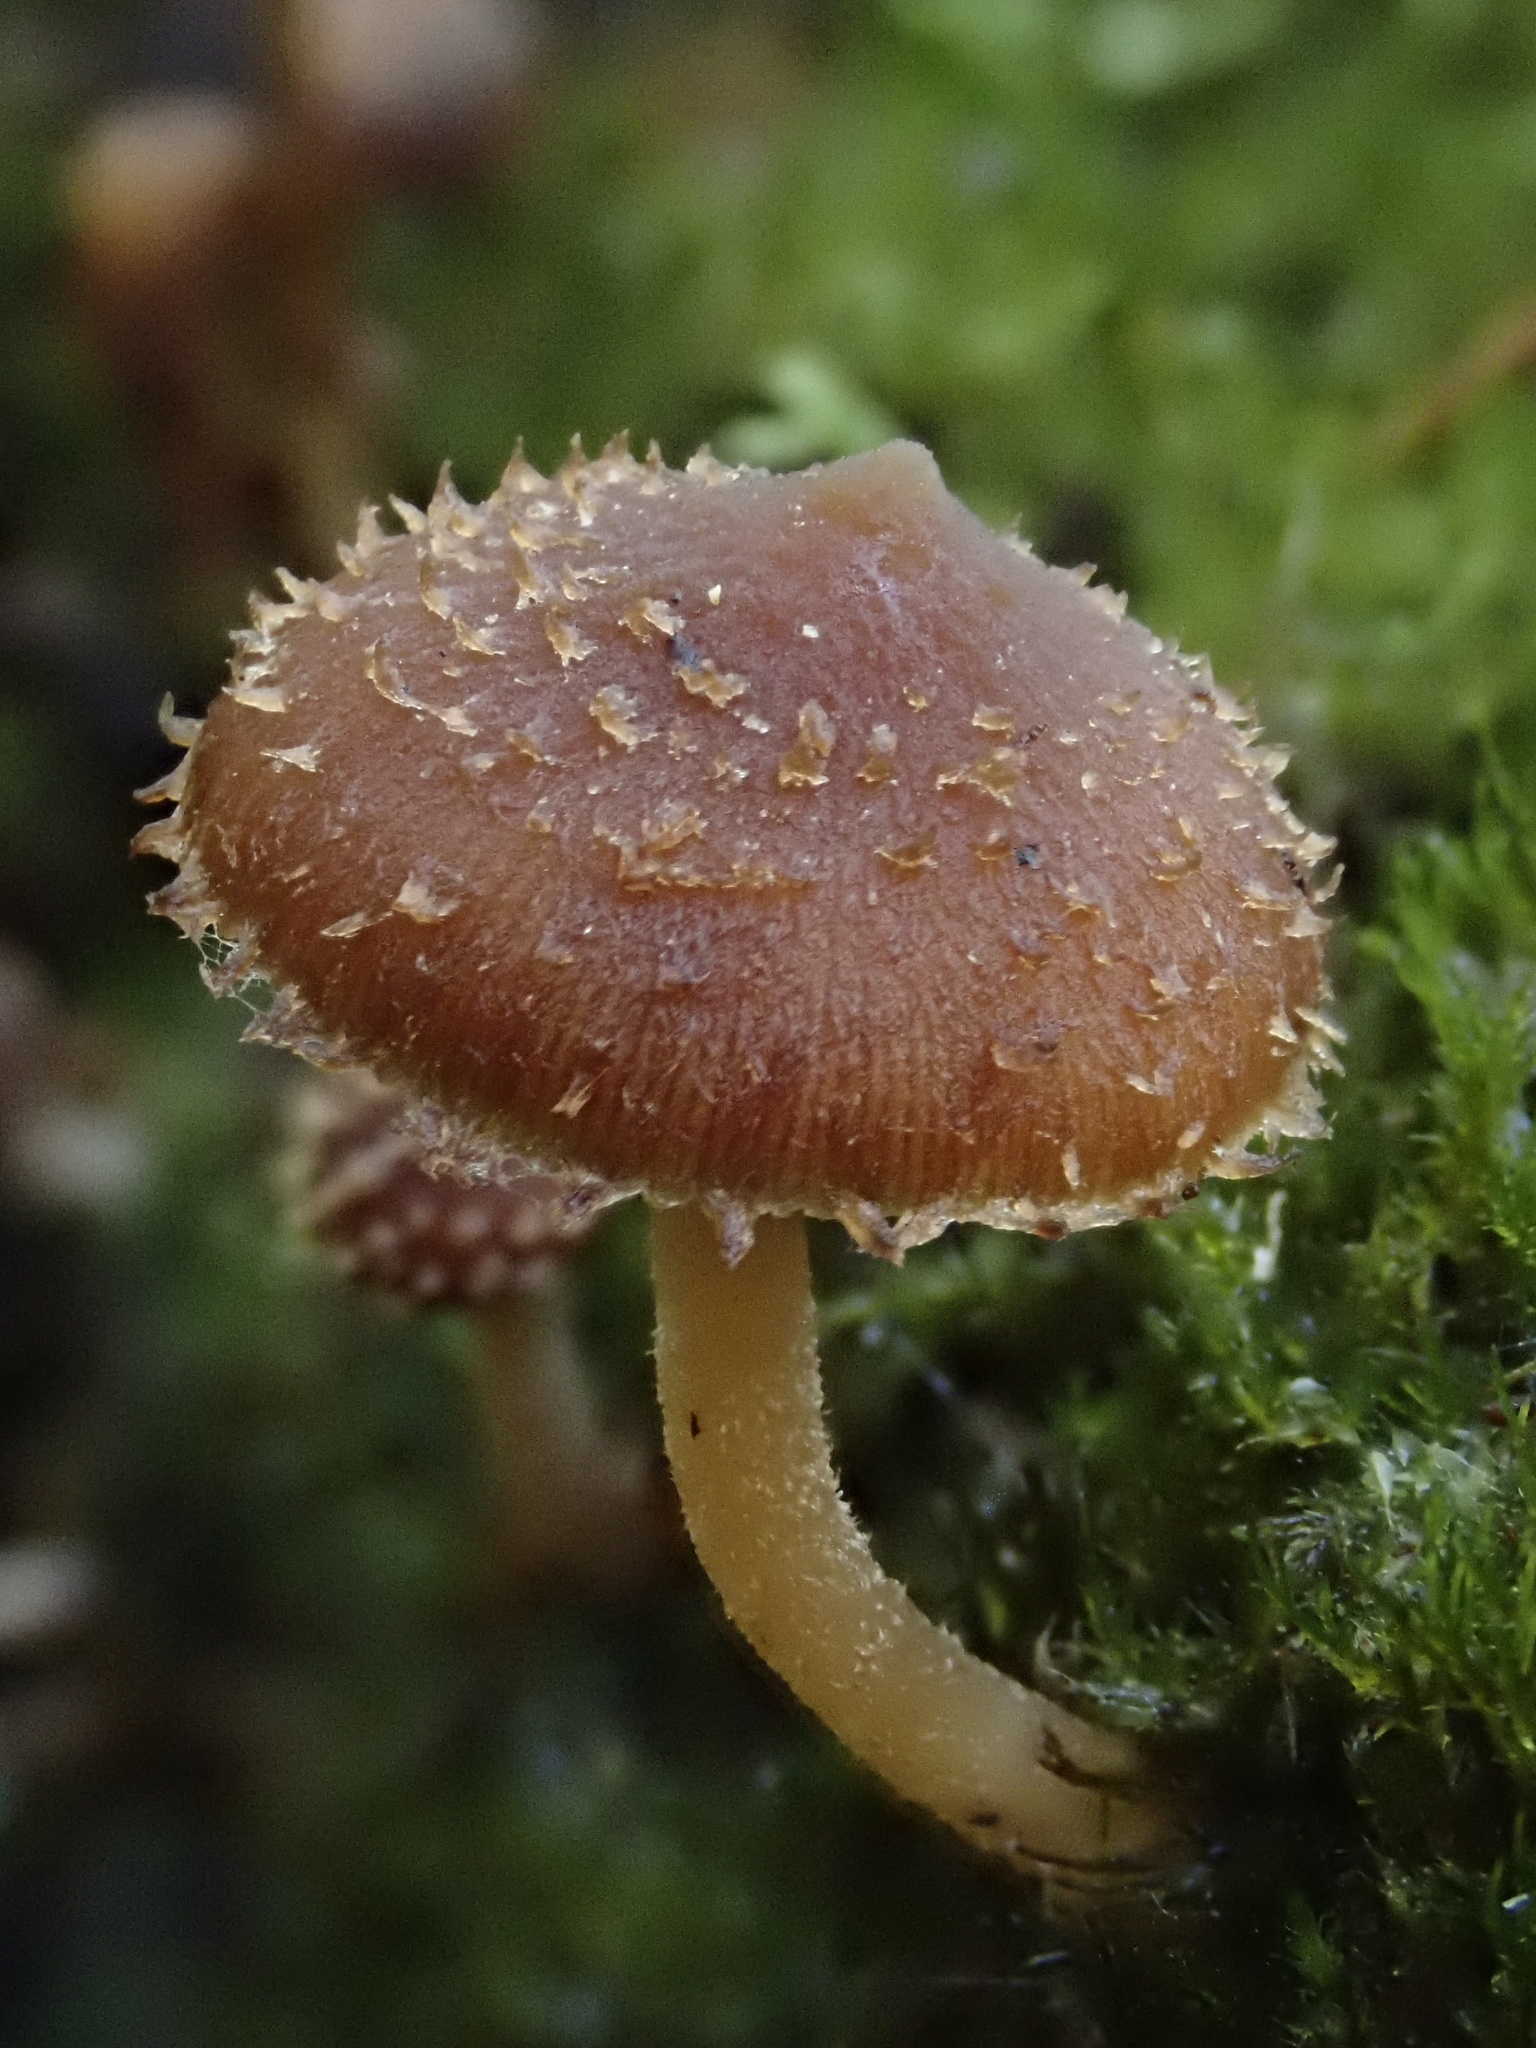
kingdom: Fungi
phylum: Basidiomycota
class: Agaricomycetes
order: Agaricales
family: Psathyrellaceae
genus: Psathyrella
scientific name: Psathyrella echinata
